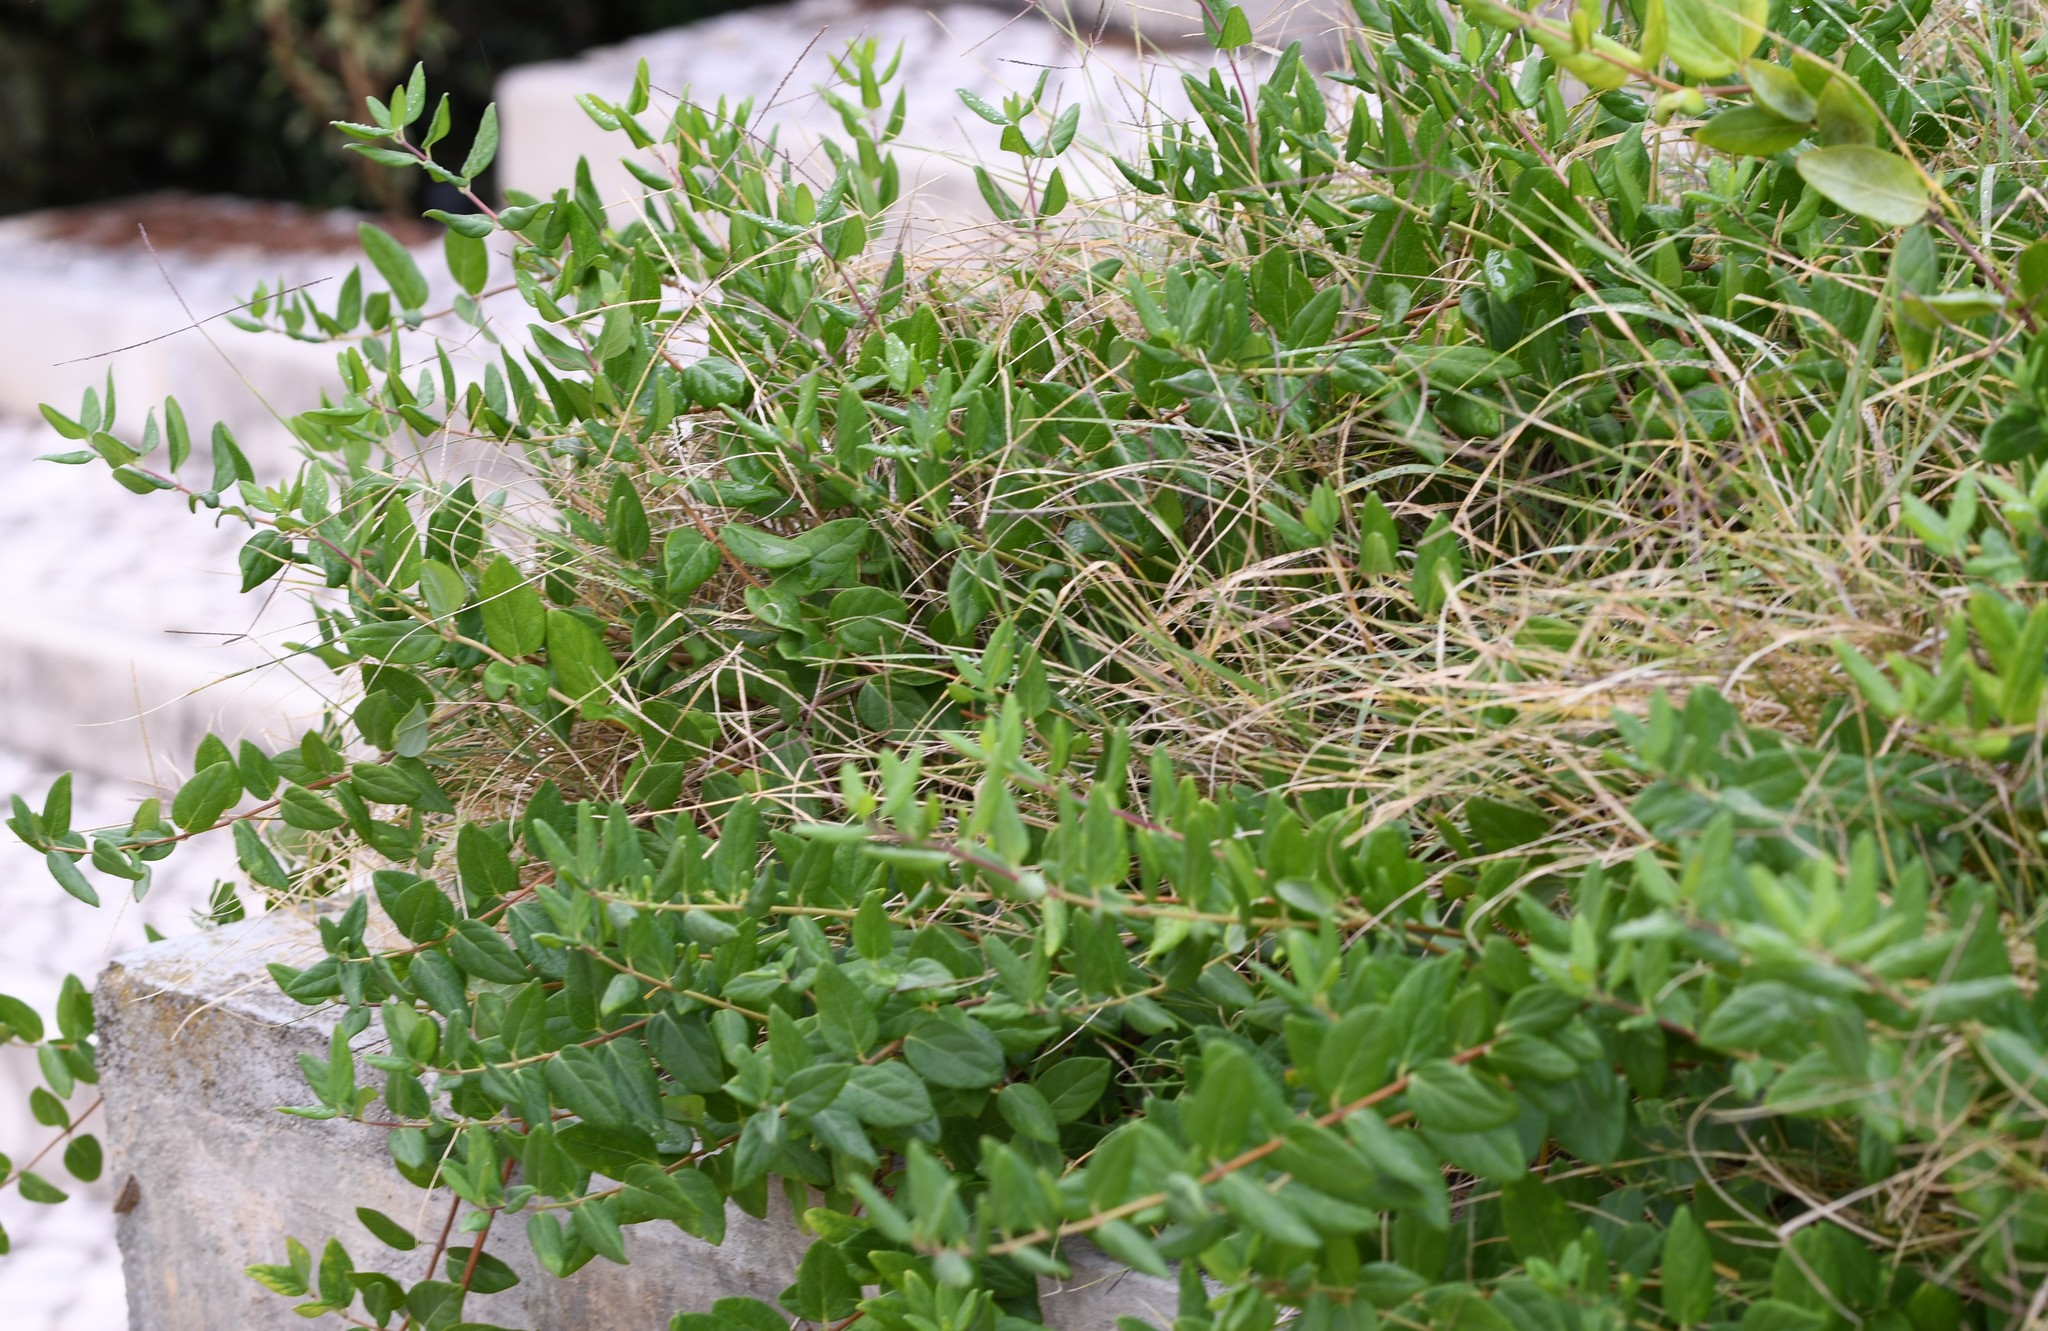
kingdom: Plantae
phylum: Tracheophyta
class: Magnoliopsida
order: Dipsacales
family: Caprifoliaceae
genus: Lonicera
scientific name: Lonicera japonica
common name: Japanese honeysuckle
